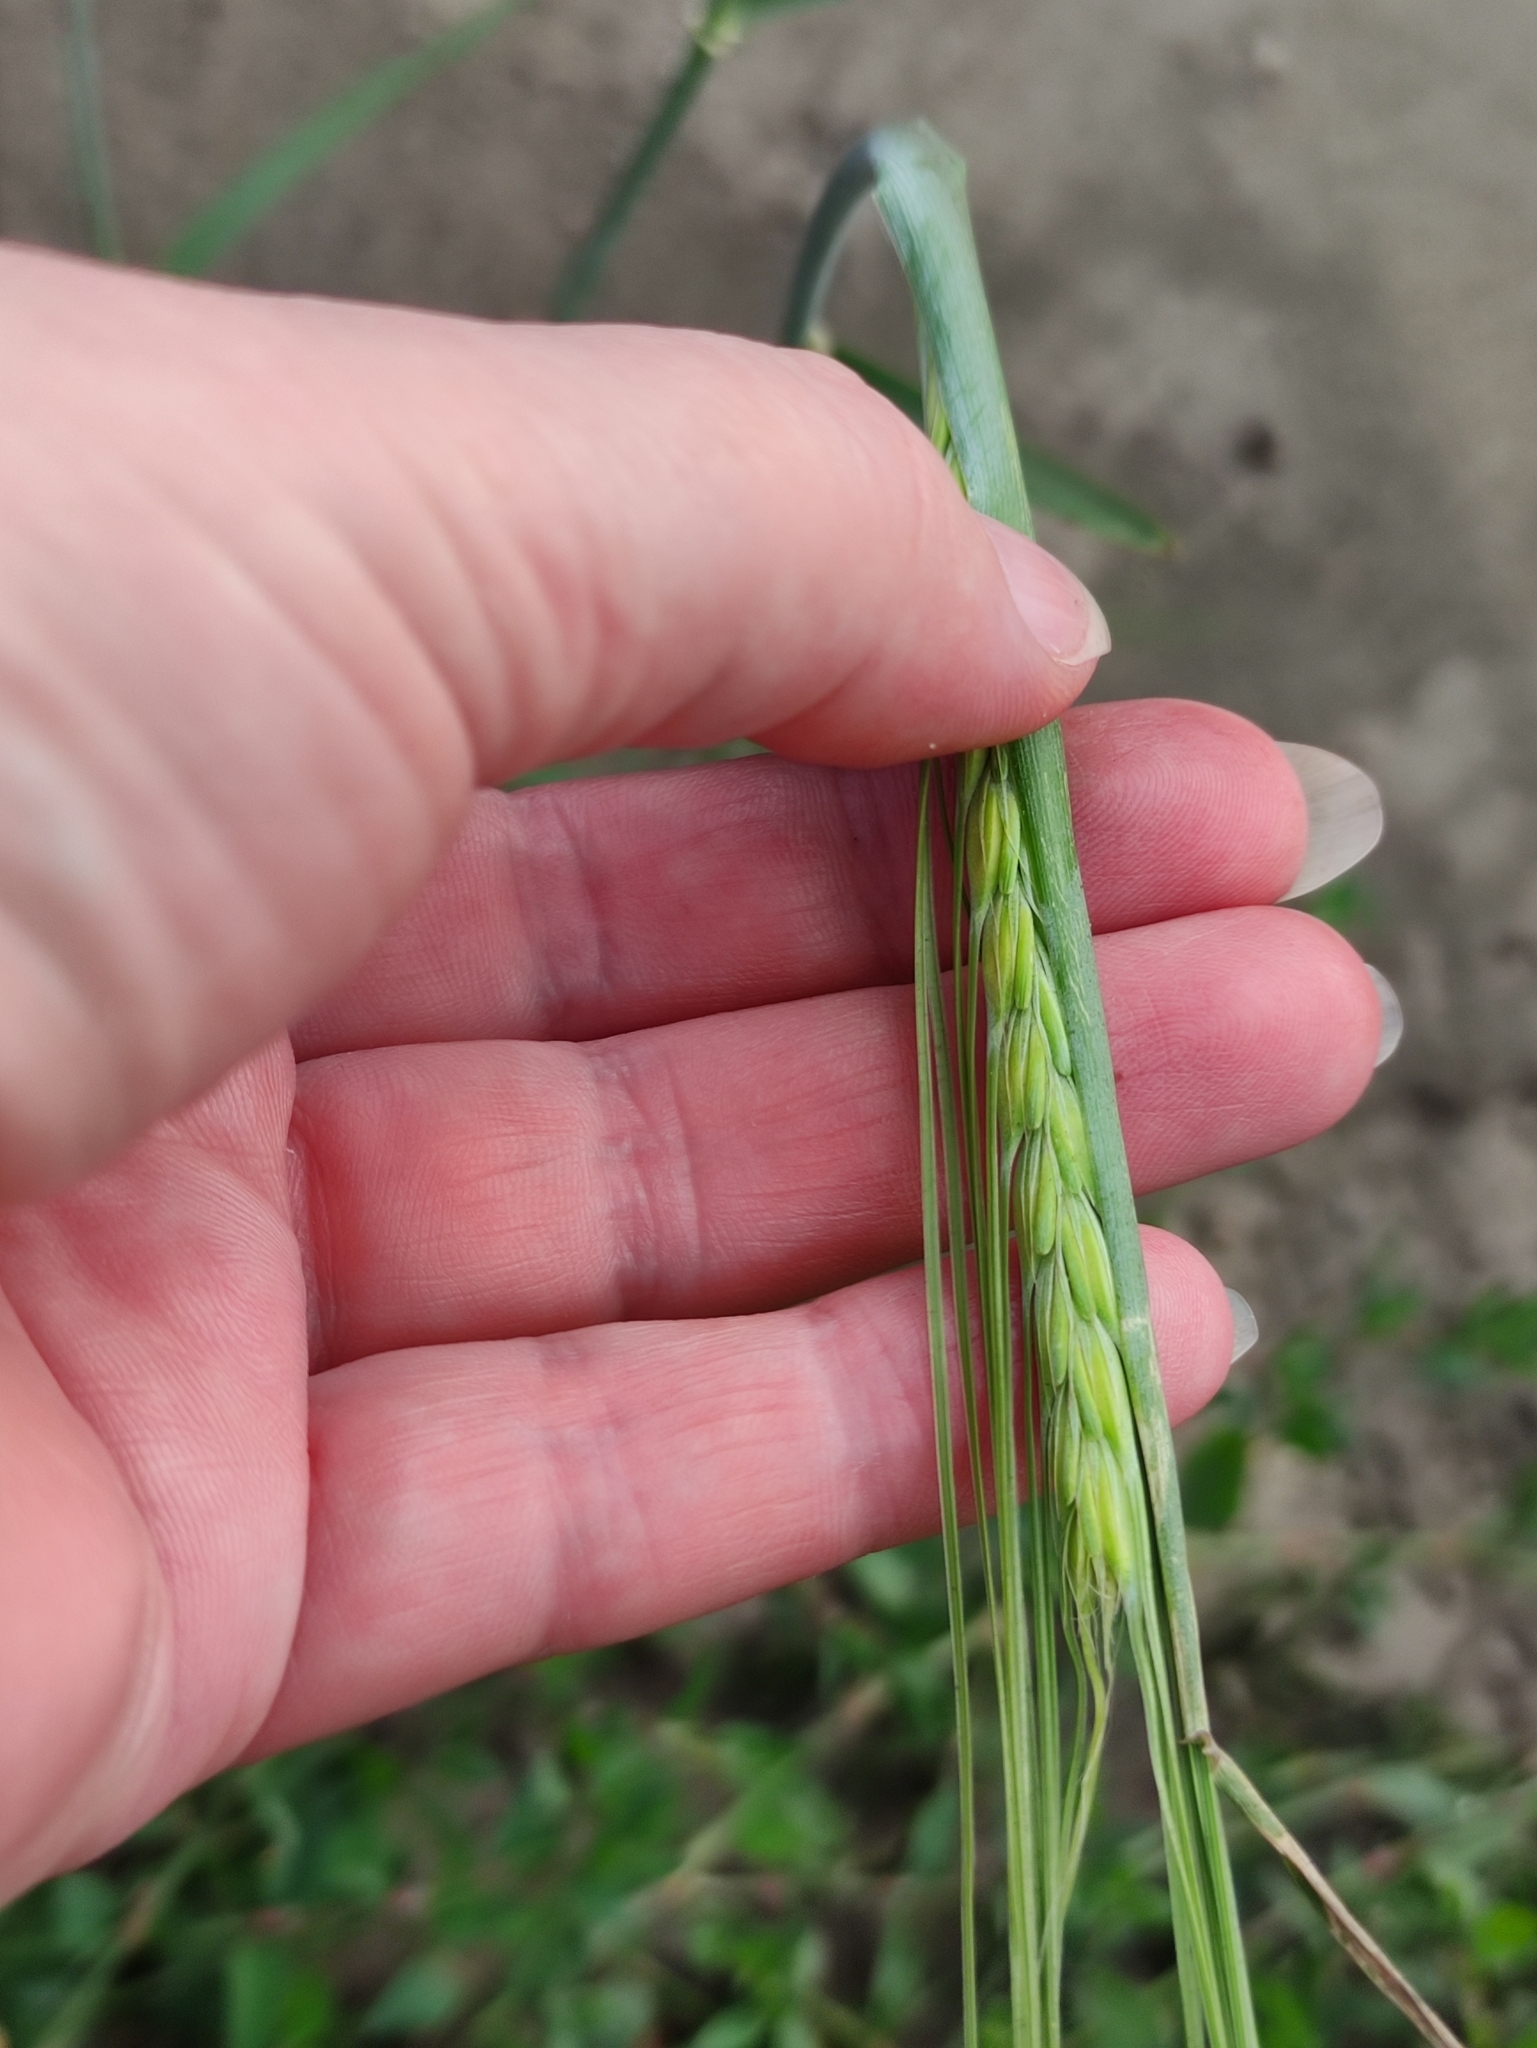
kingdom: Plantae
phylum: Tracheophyta
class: Liliopsida
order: Poales
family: Poaceae
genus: Hordeum
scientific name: Hordeum vulgare
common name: Common barley
